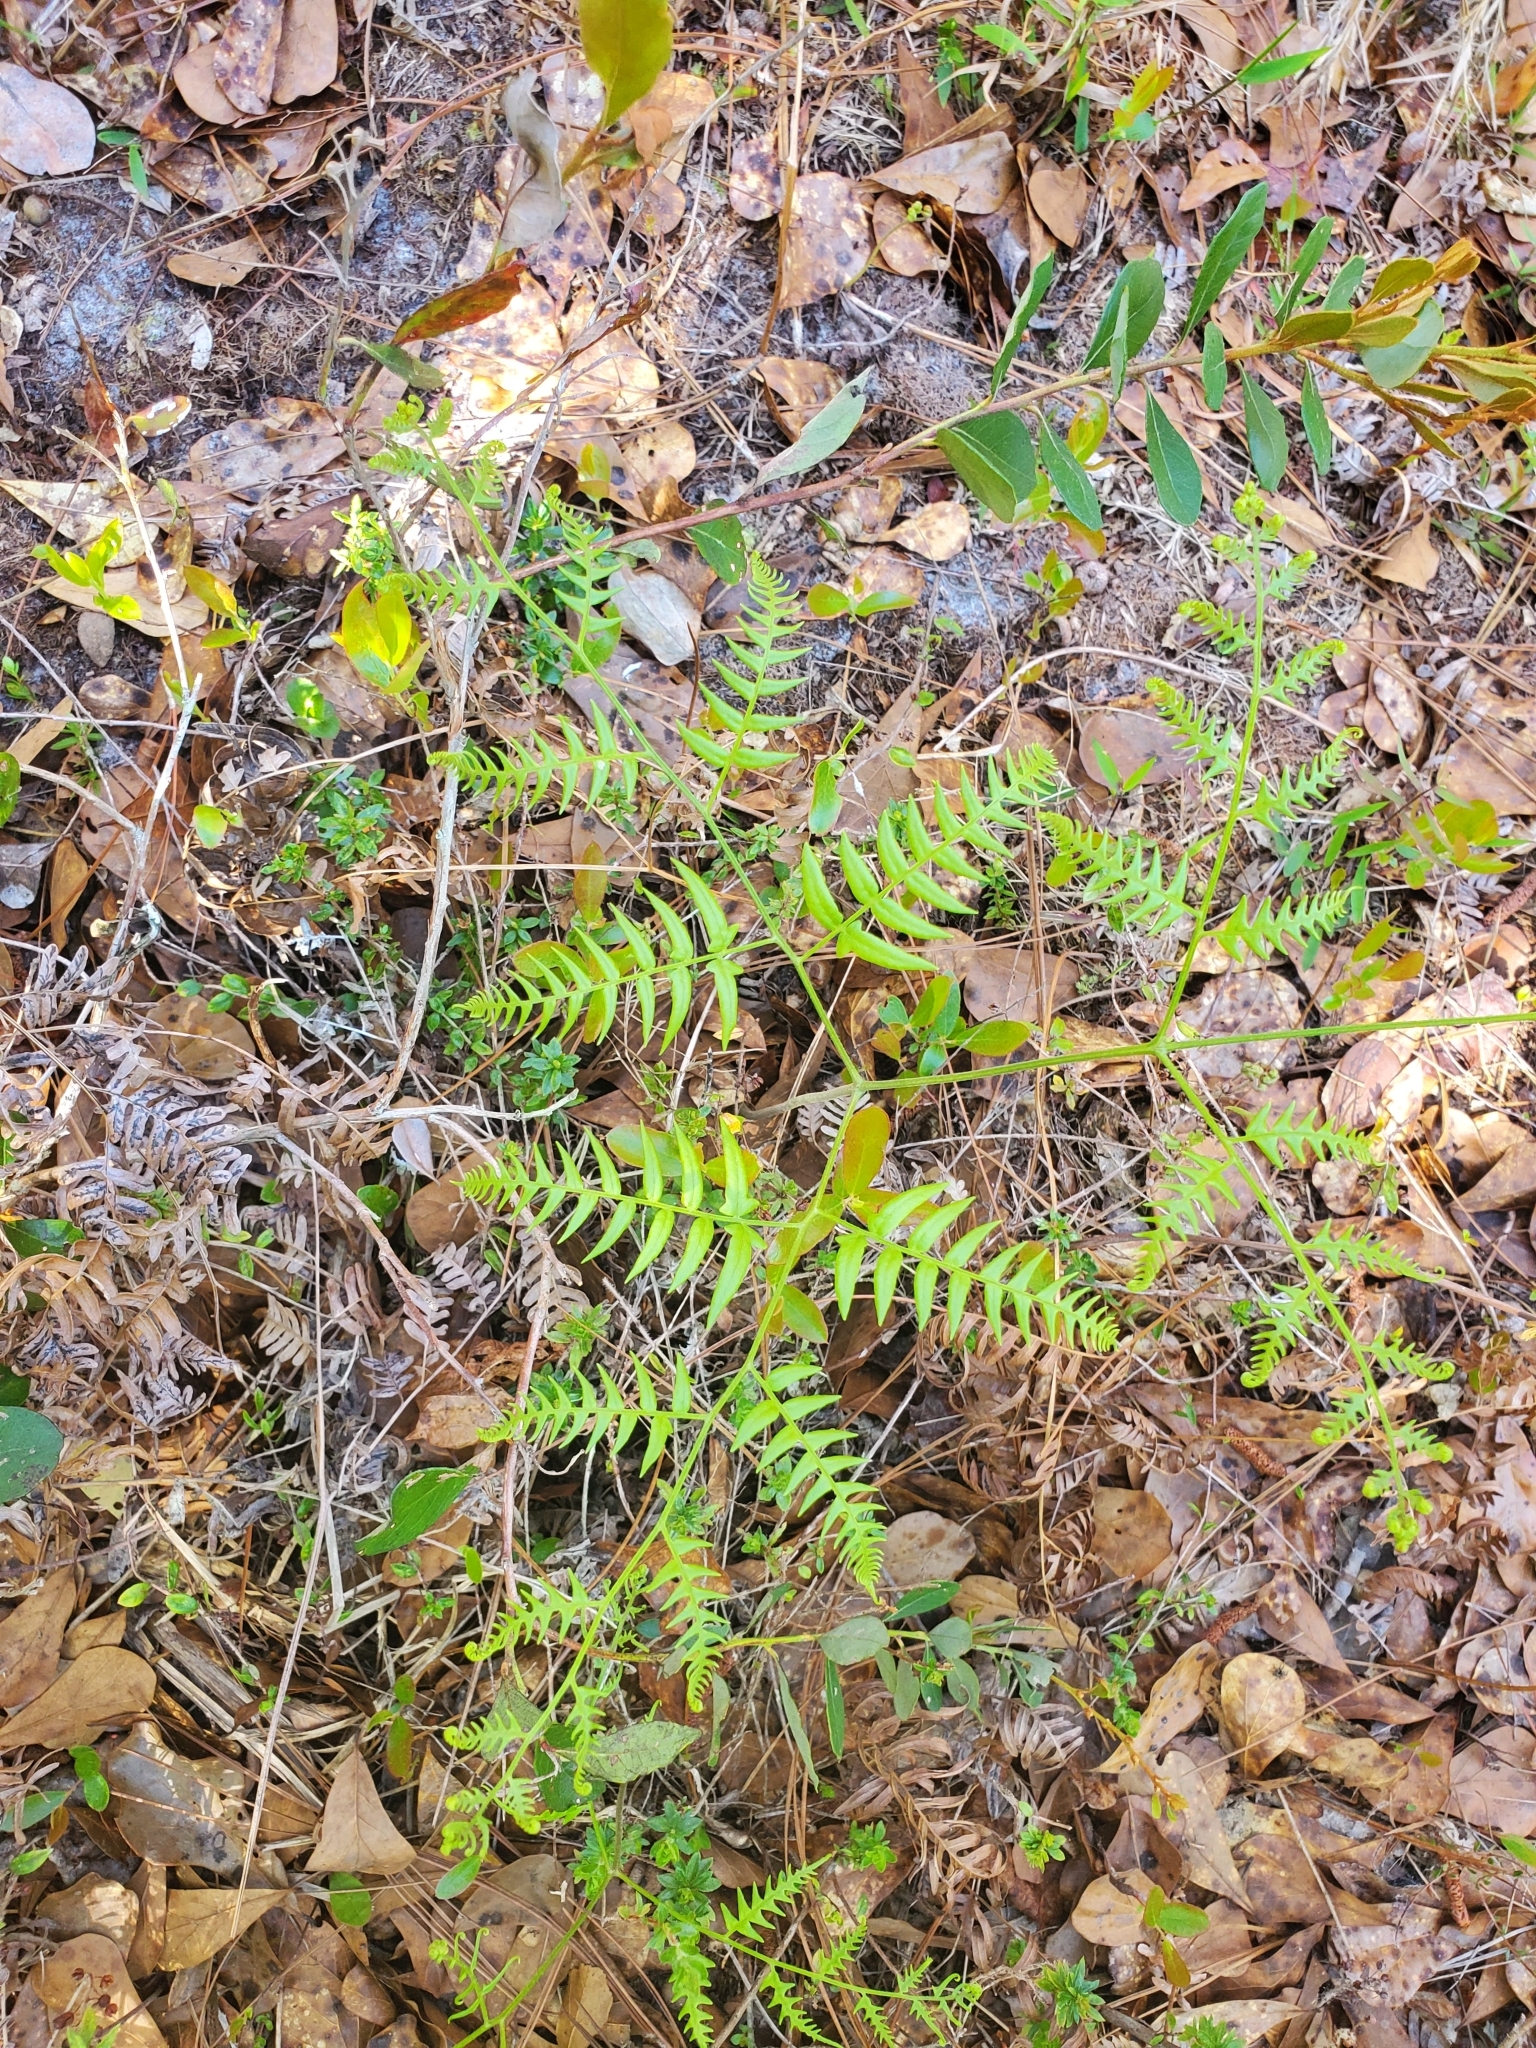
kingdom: Plantae
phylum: Tracheophyta
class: Polypodiopsida
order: Polypodiales
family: Dennstaedtiaceae
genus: Pteridium
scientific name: Pteridium aquilinum
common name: Bracken
